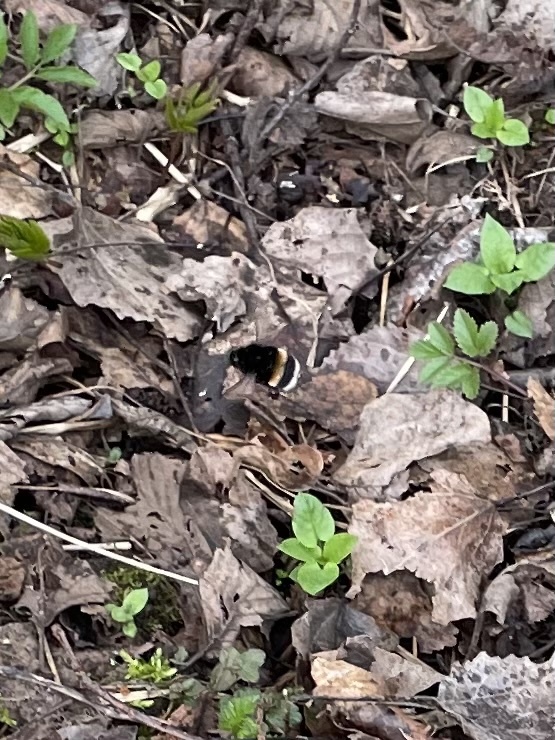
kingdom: Animalia
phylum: Arthropoda
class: Insecta
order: Hymenoptera
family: Apidae
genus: Bombus
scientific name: Bombus
